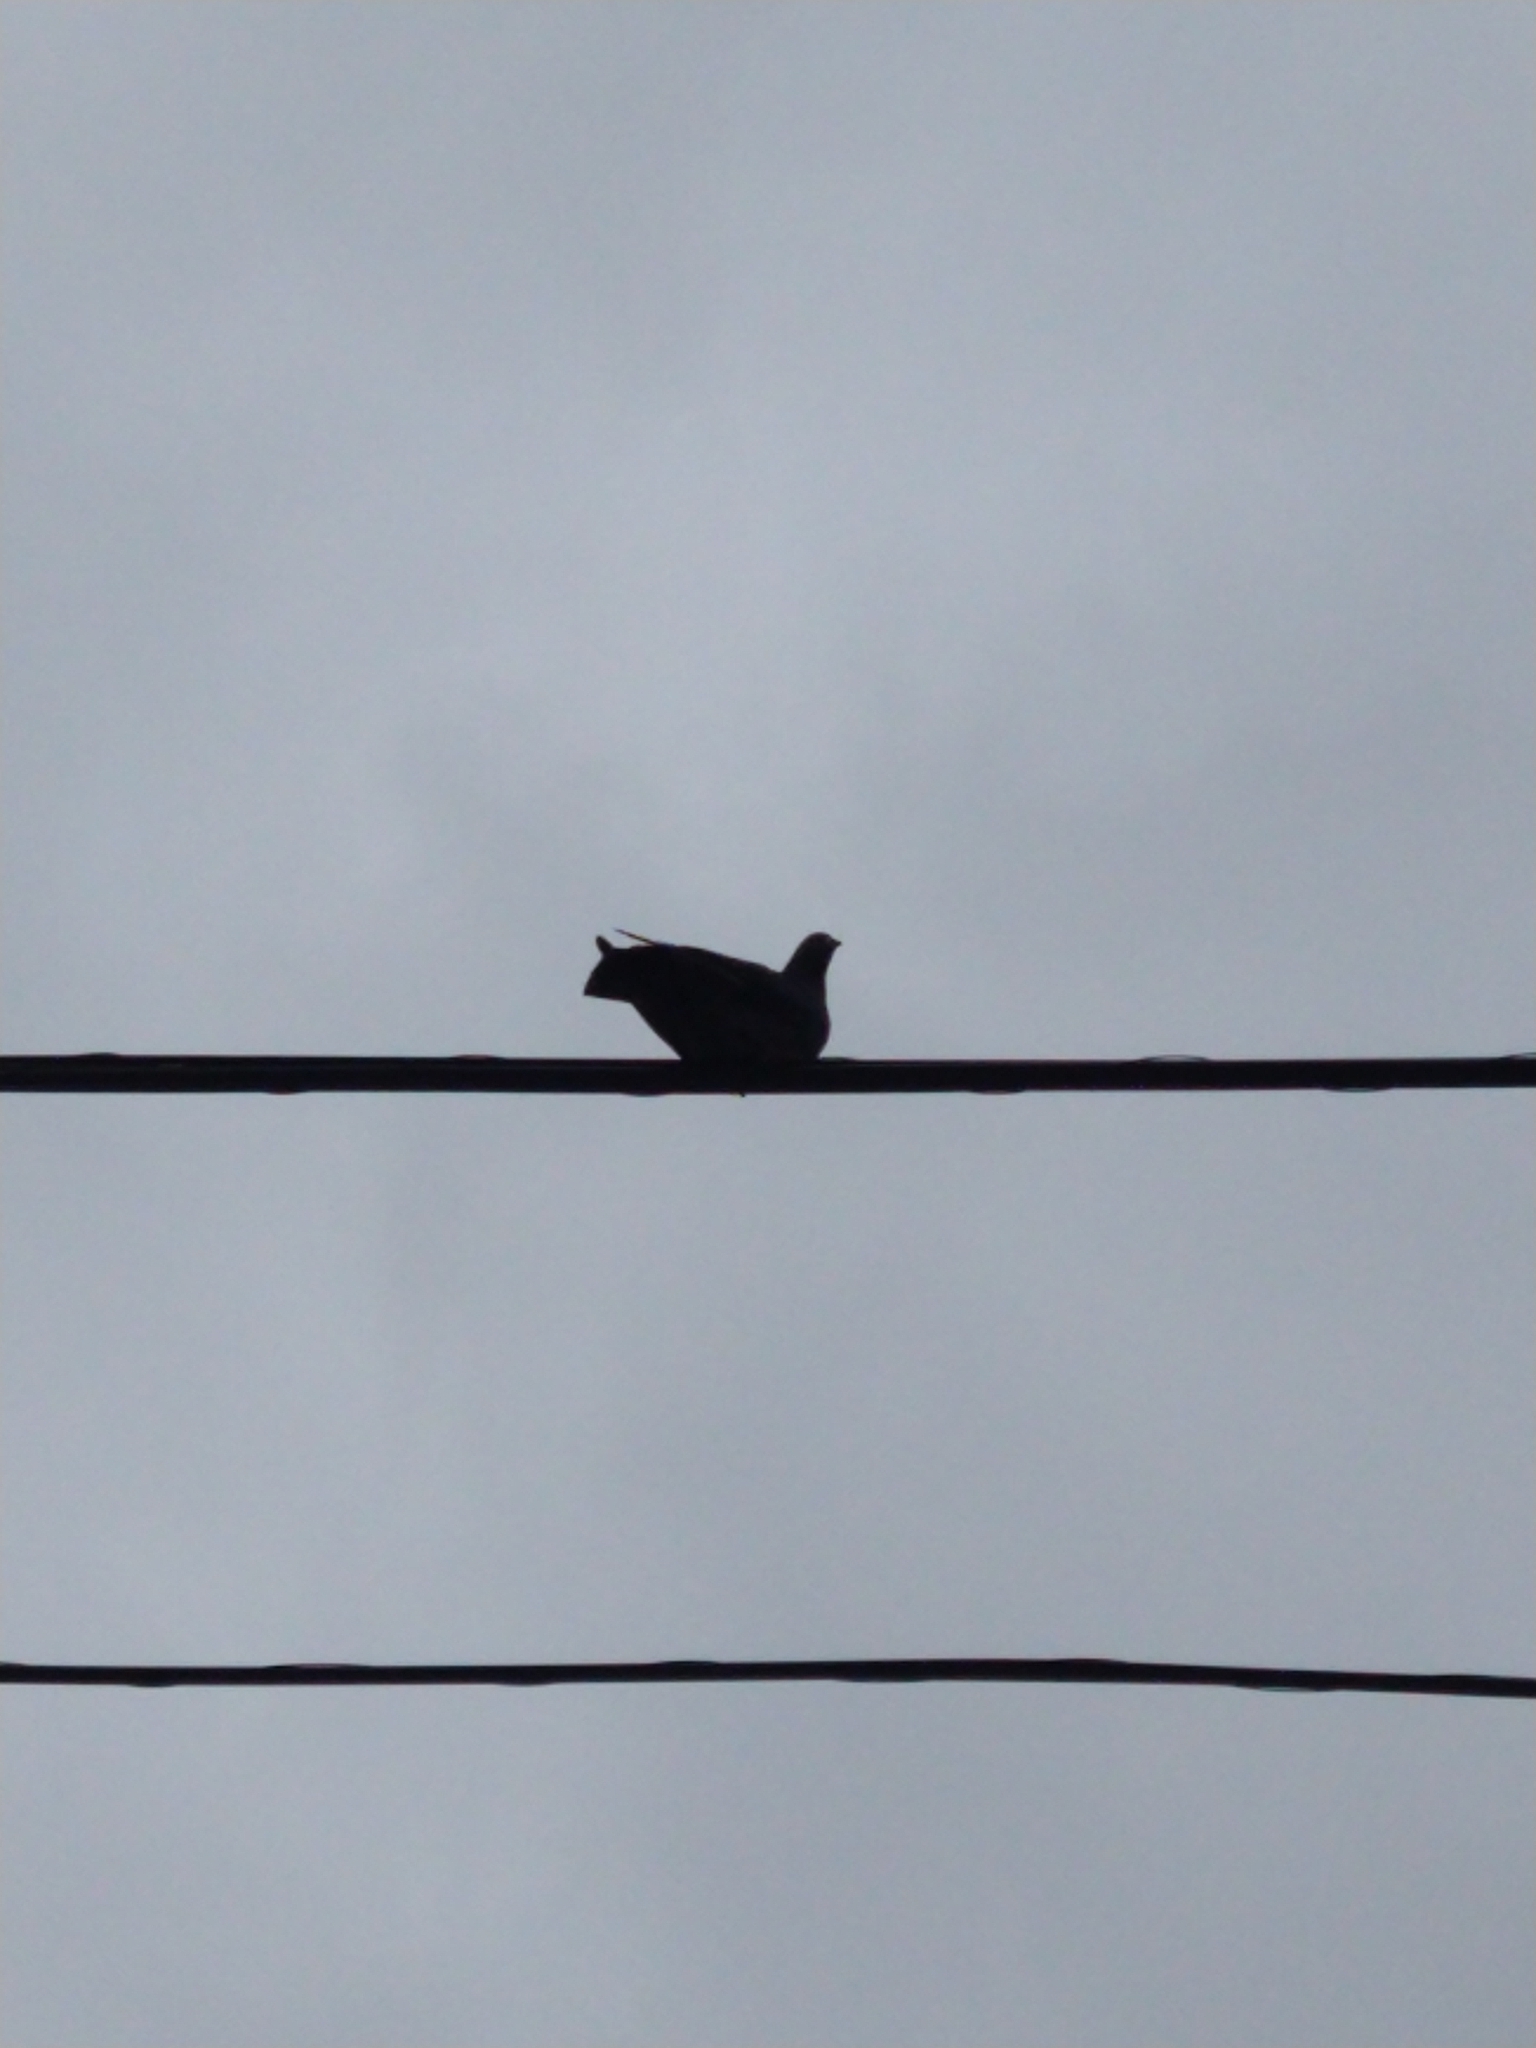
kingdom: Animalia
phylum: Chordata
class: Aves
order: Columbiformes
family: Columbidae
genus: Columba
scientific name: Columba livia
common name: Rock pigeon
